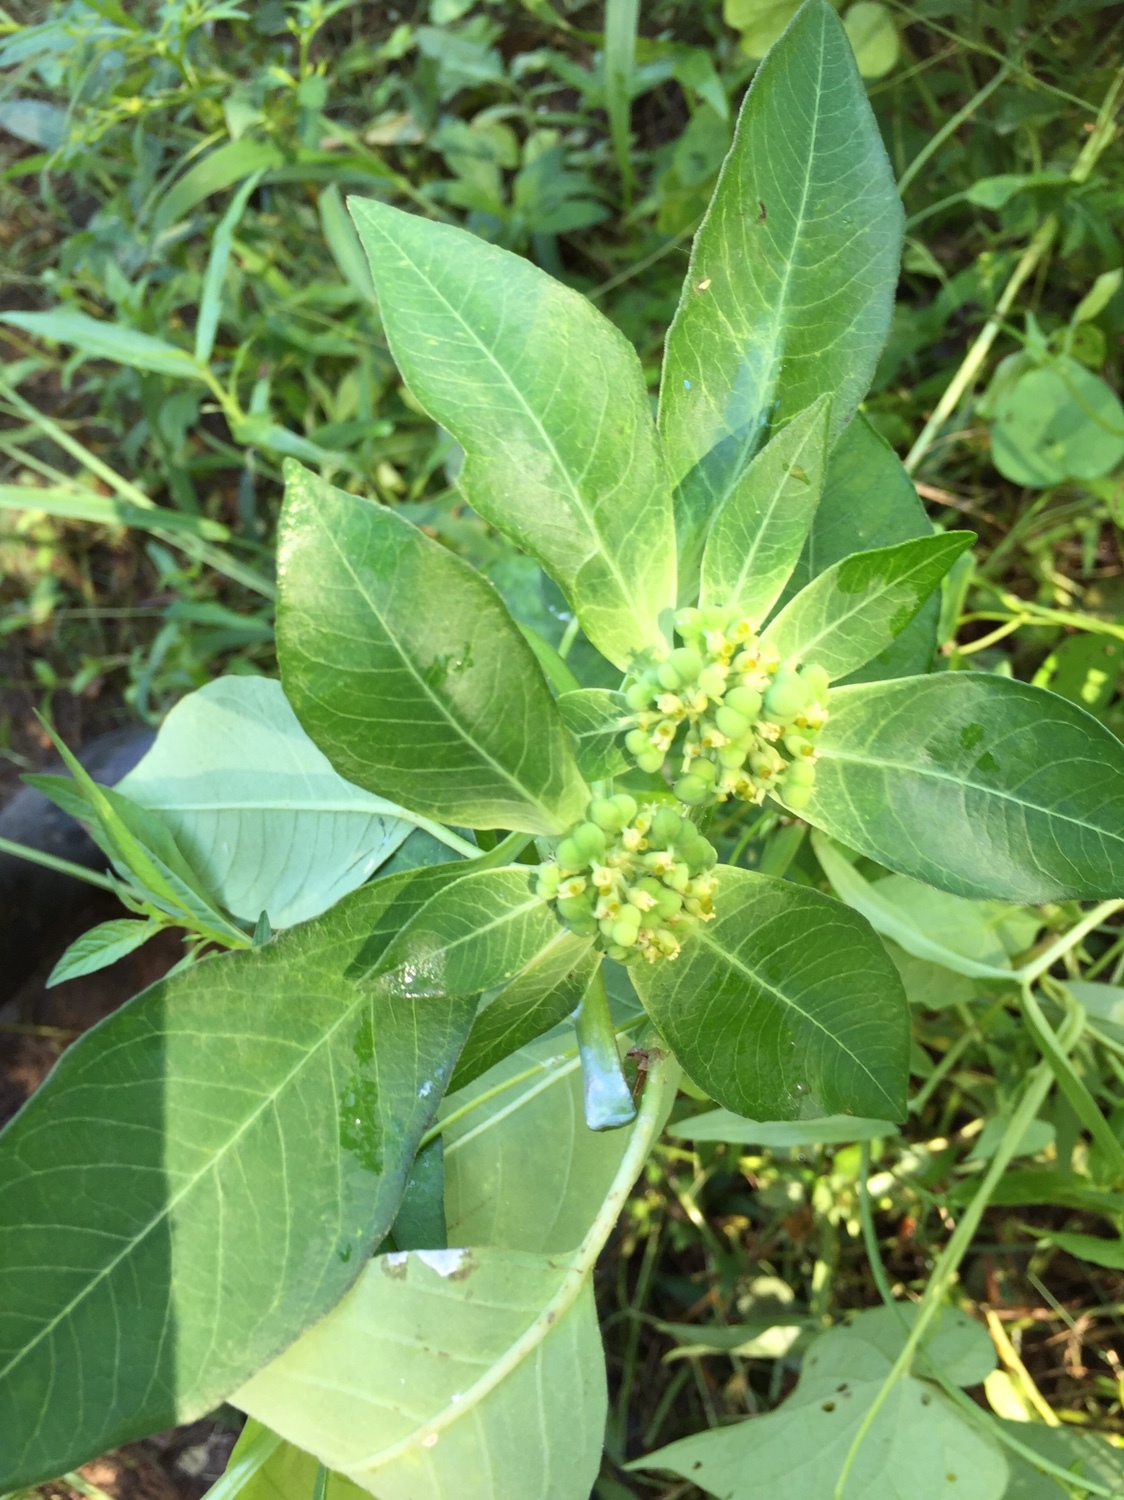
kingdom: Plantae
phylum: Tracheophyta
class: Magnoliopsida
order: Malpighiales
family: Euphorbiaceae
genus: Euphorbia
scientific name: Euphorbia heterophylla
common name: Mexican fireplant
